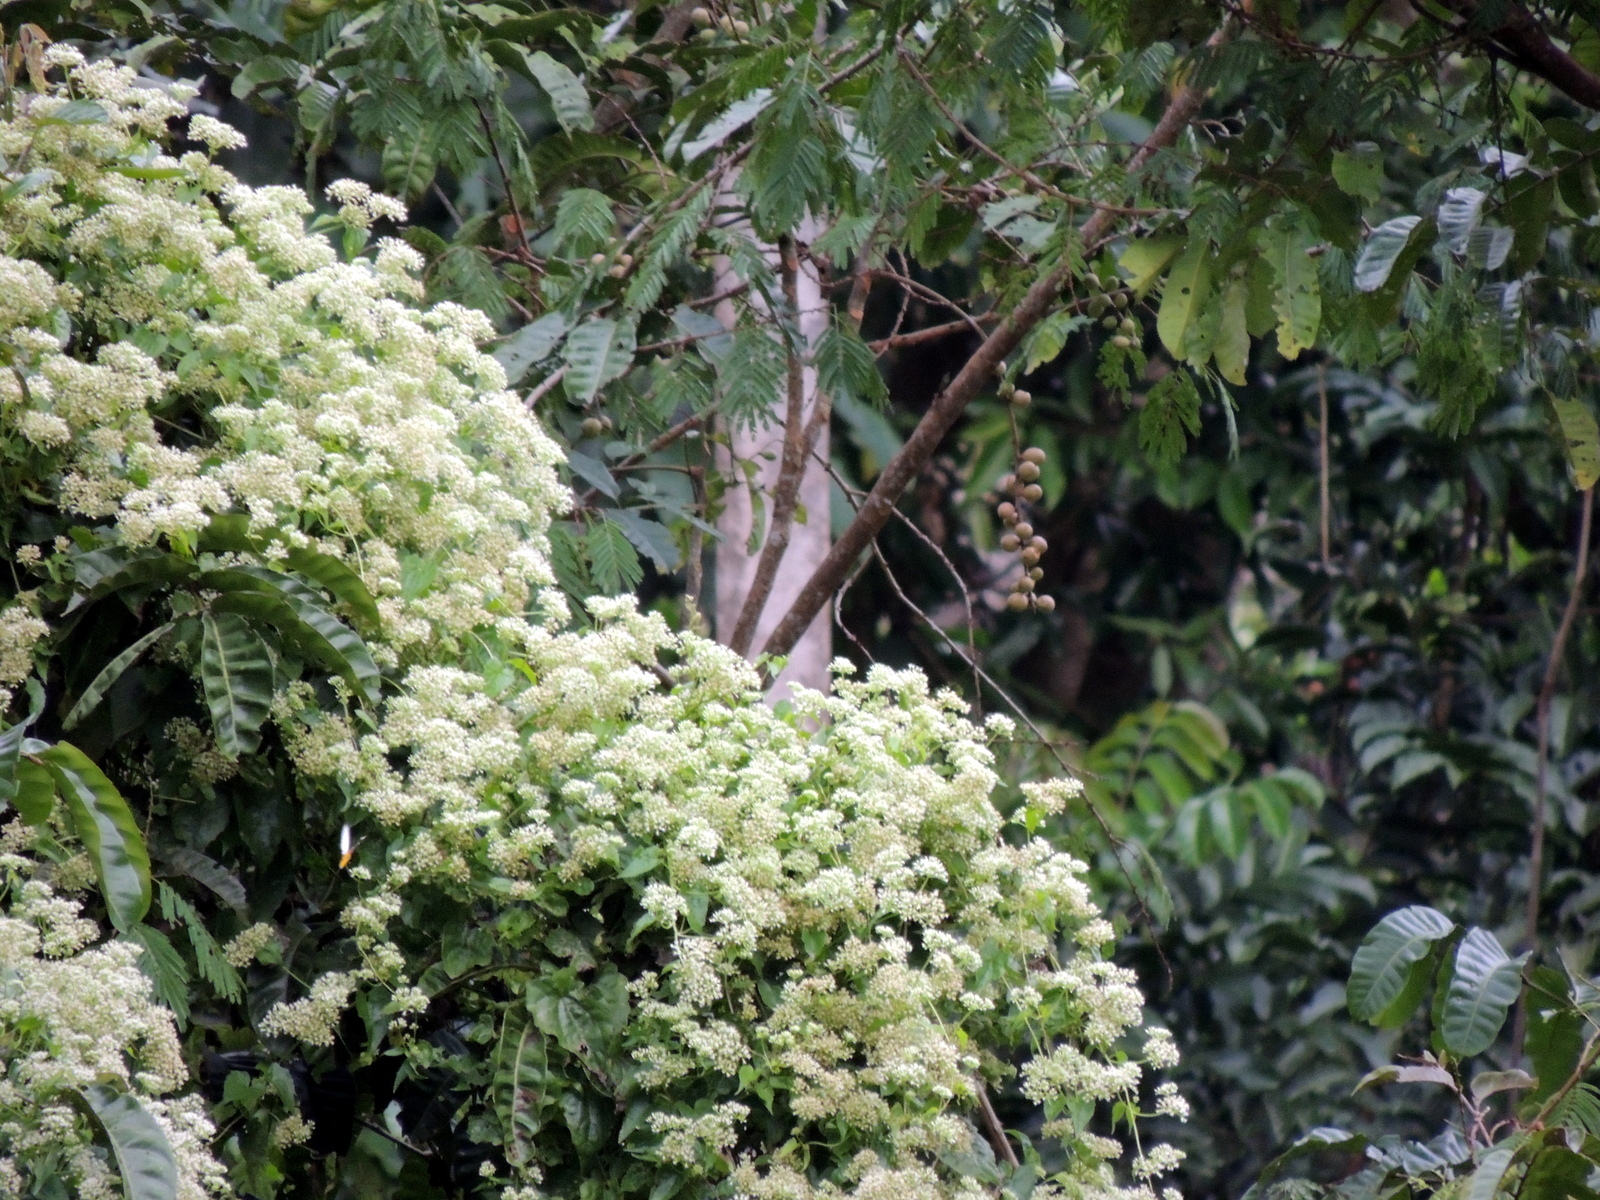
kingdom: Plantae
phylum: Tracheophyta
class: Magnoliopsida
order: Asterales
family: Asteraceae
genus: Mikania
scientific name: Mikania micrantha
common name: Mile-a-minute
